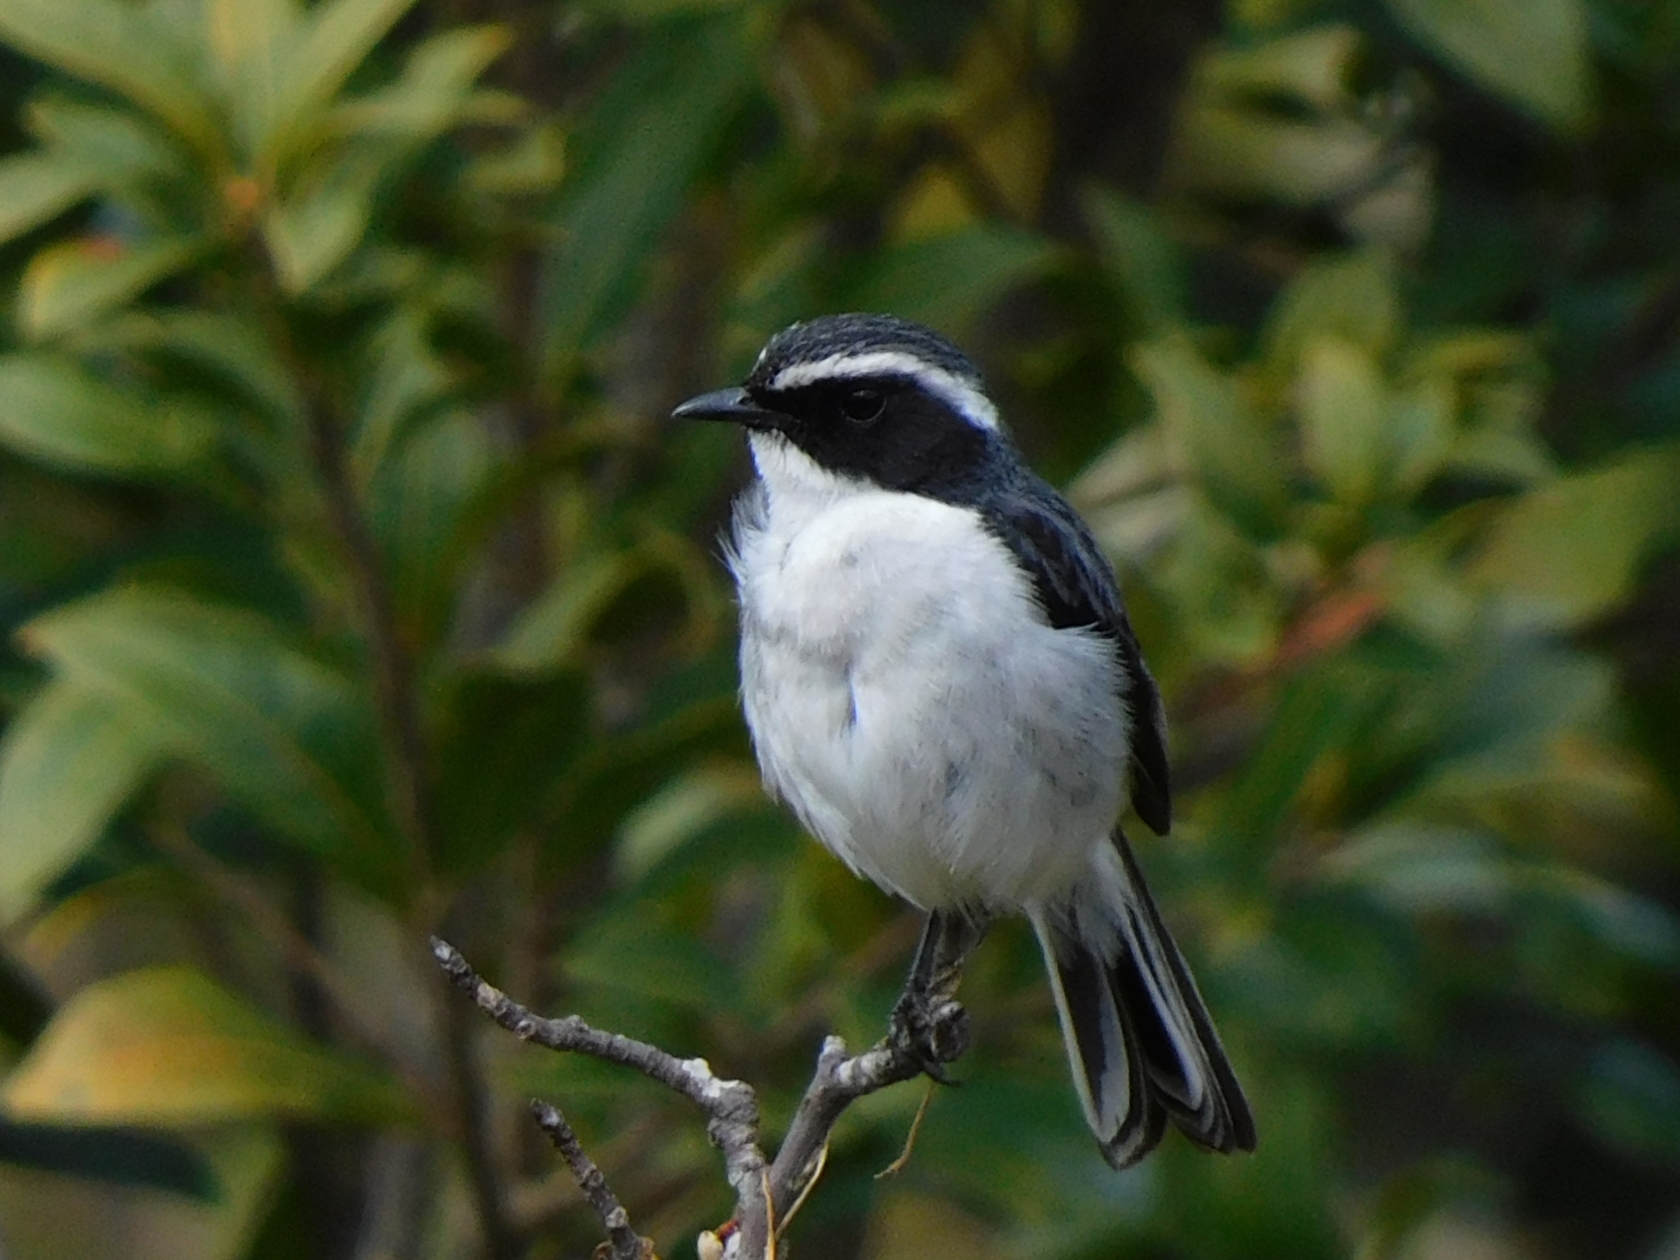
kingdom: Animalia
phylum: Chordata
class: Aves
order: Passeriformes
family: Muscicapidae
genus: Saxicola
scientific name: Saxicola ferreus
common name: Grey bush chat
